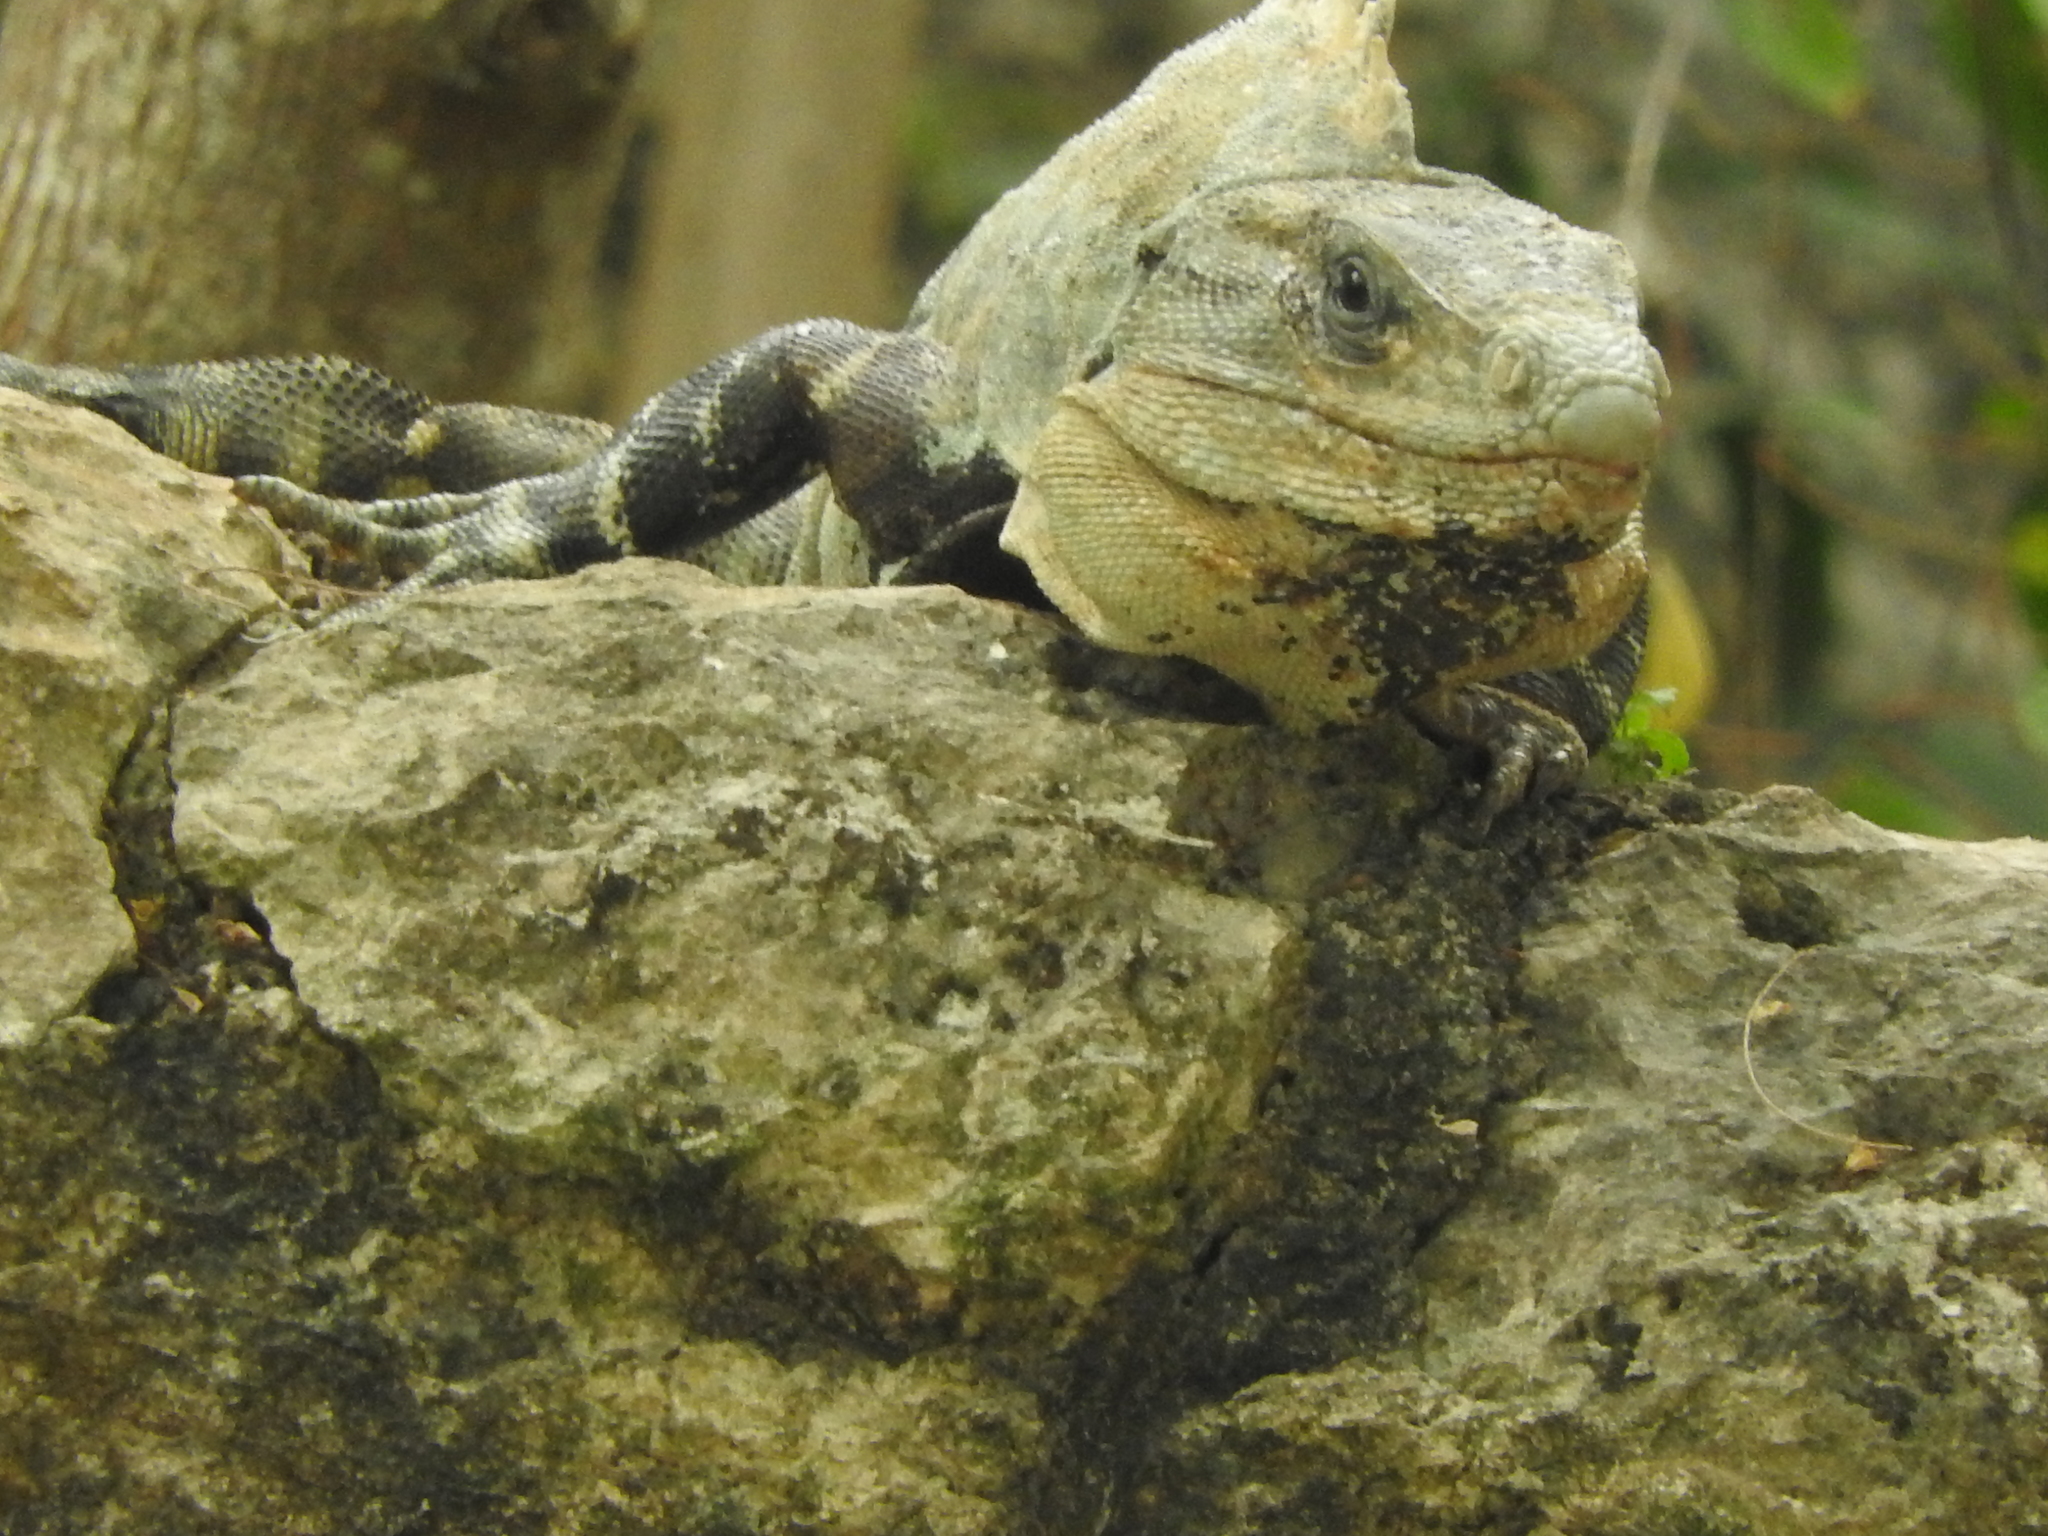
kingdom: Animalia
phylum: Chordata
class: Squamata
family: Iguanidae
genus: Ctenosaura
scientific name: Ctenosaura similis
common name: Black spiny-tailed iguana
